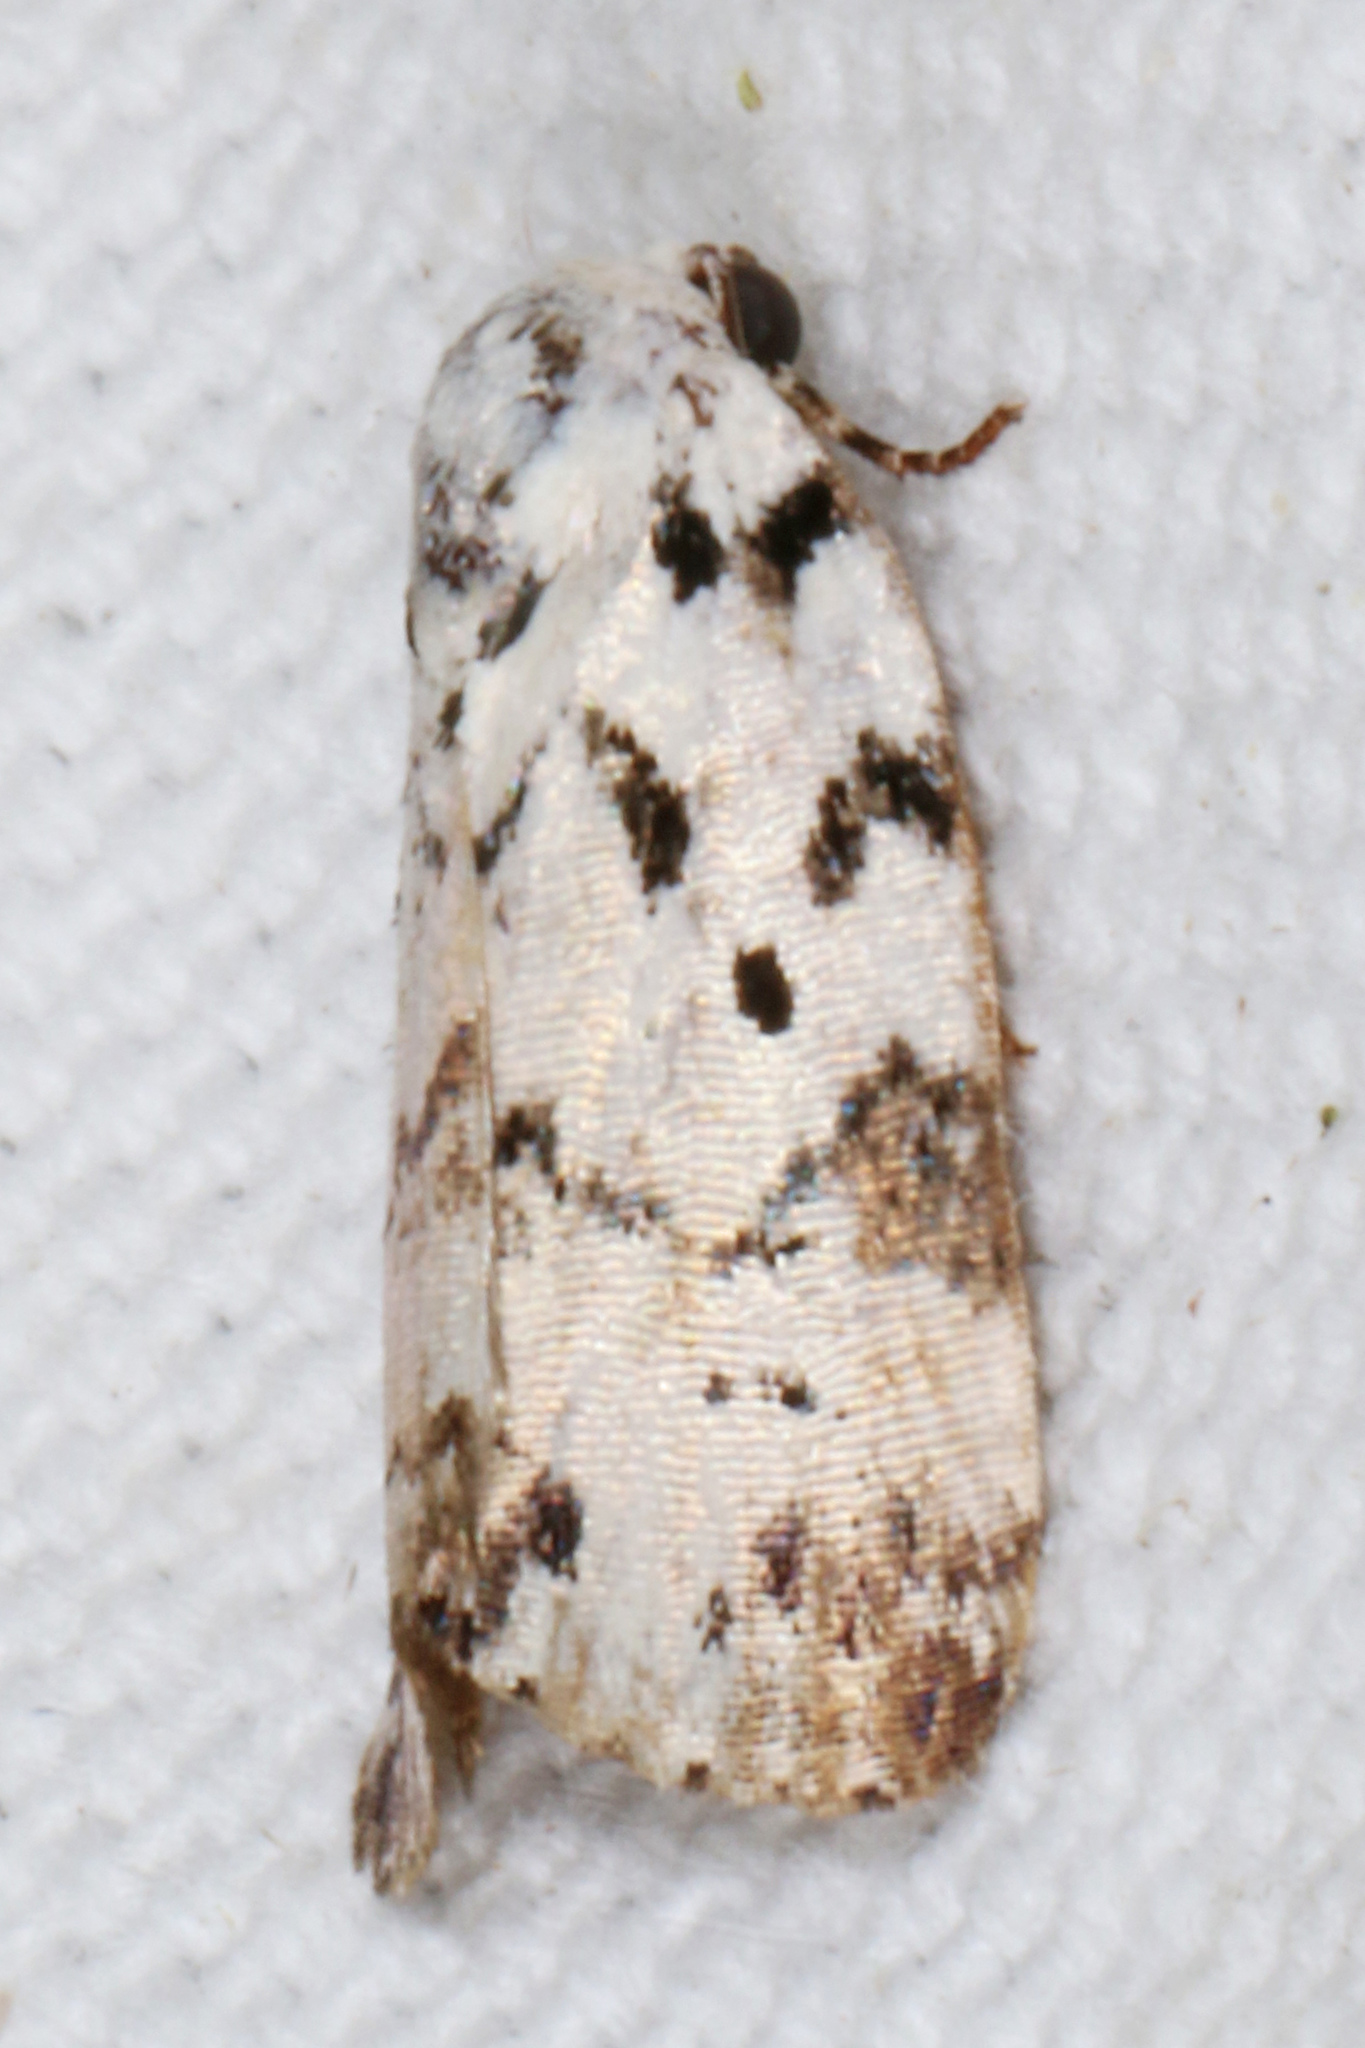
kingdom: Animalia
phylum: Arthropoda
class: Insecta
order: Lepidoptera
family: Noctuidae
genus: Polygrammate
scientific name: Polygrammate hebraeicum
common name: Hebrew moth
